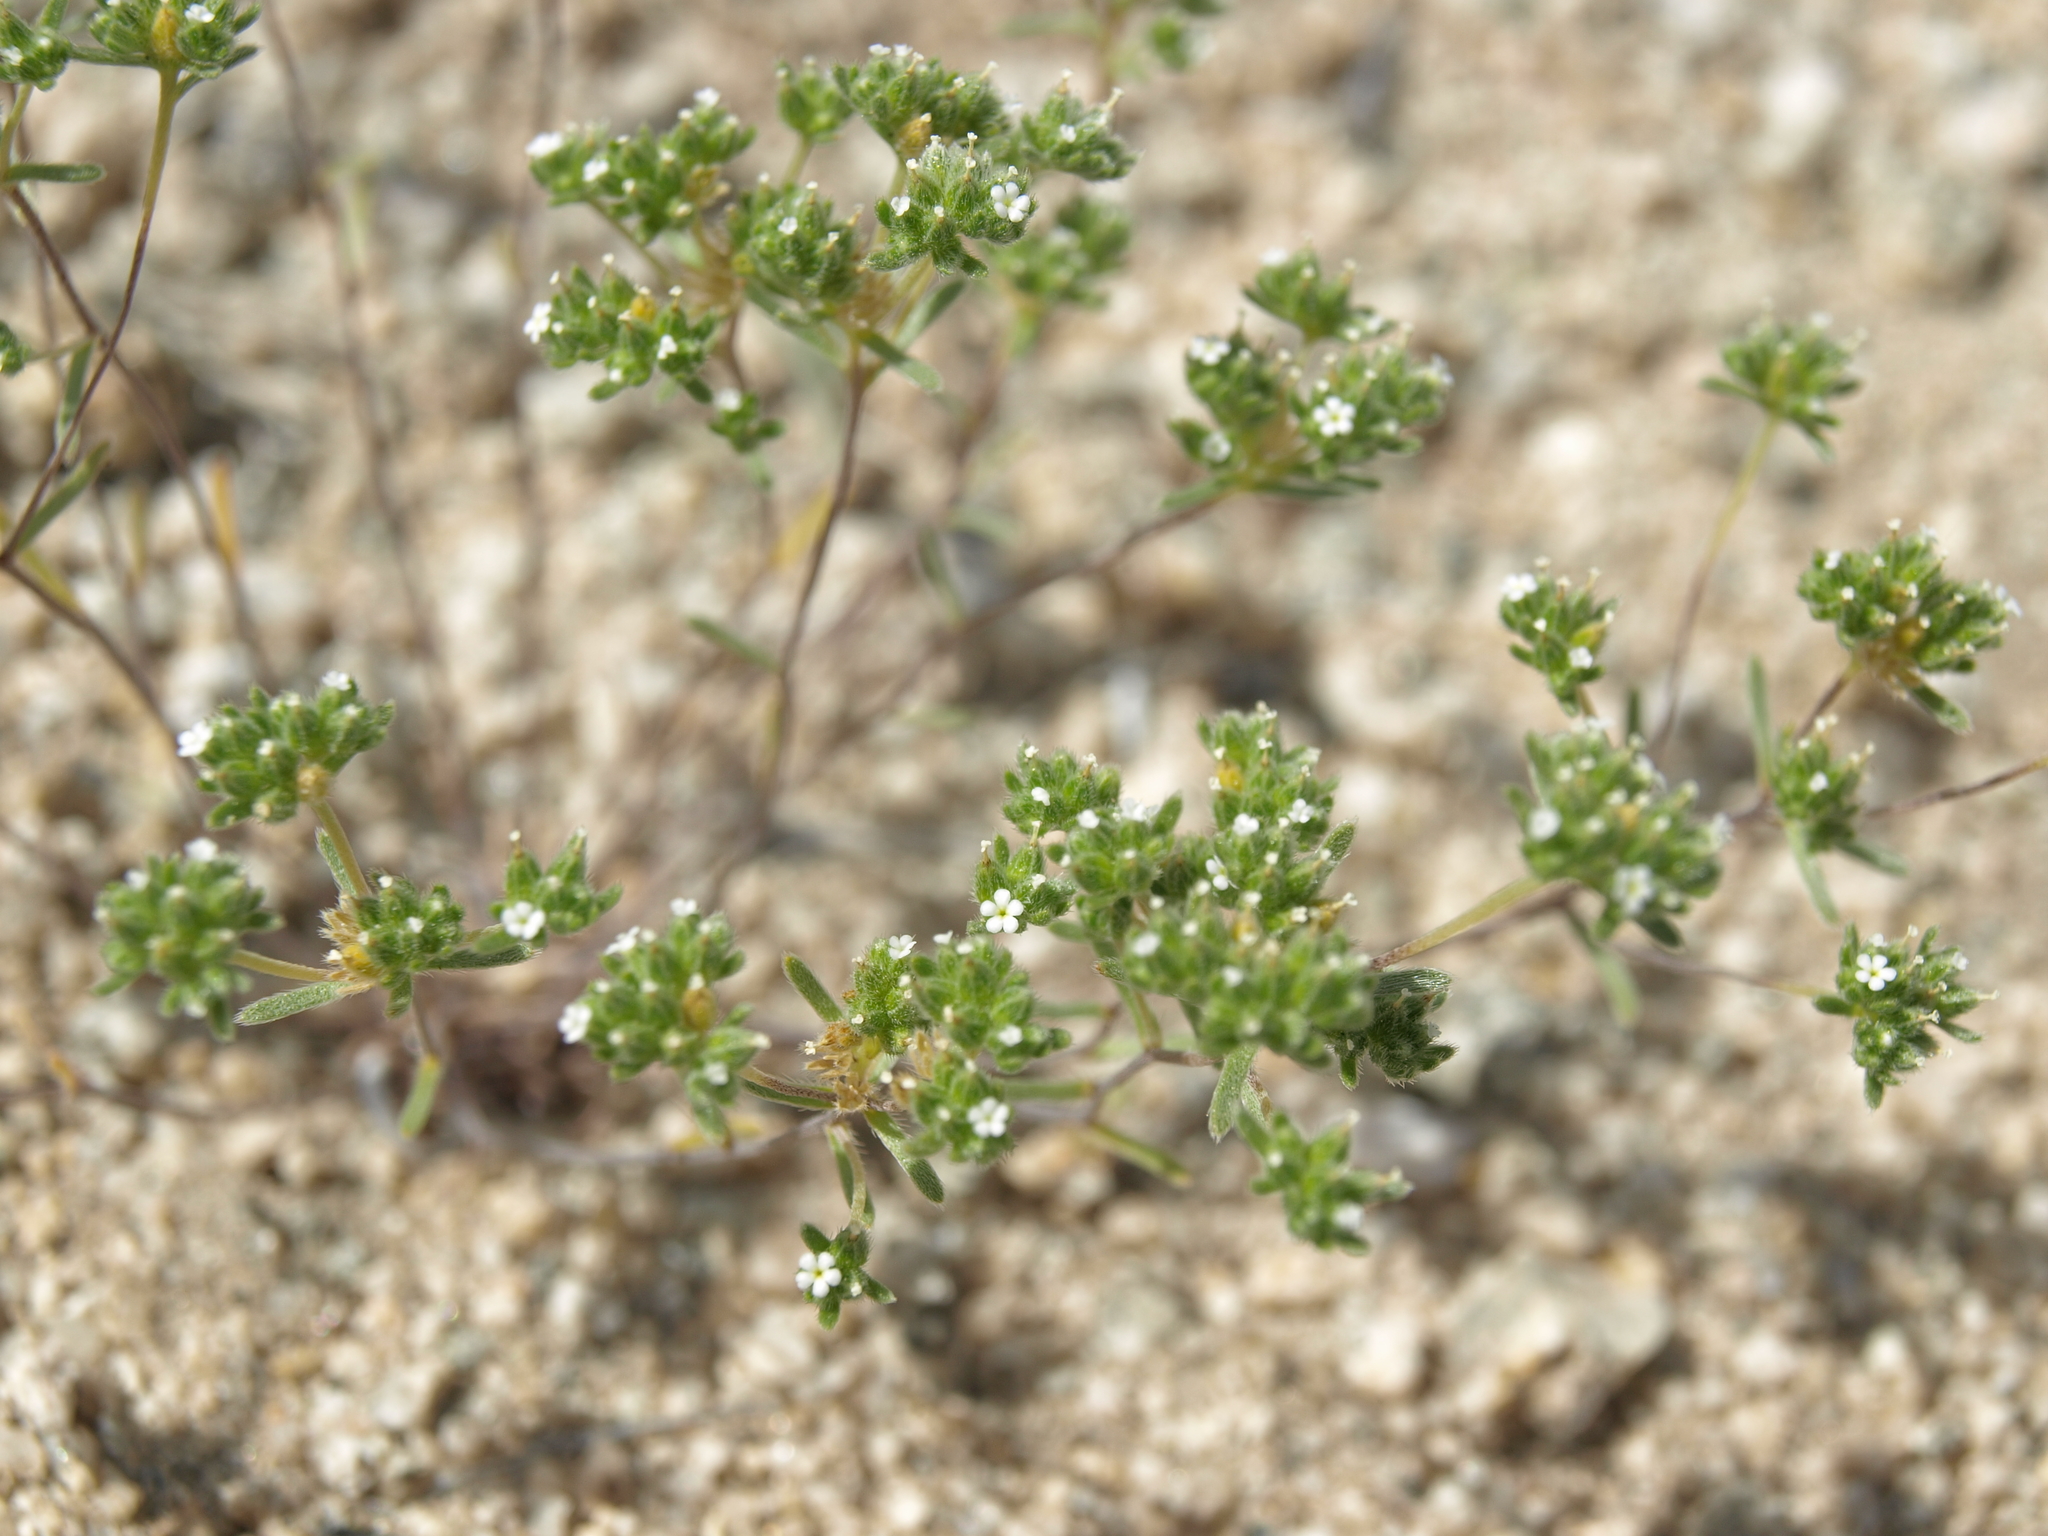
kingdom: Plantae
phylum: Tracheophyta
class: Magnoliopsida
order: Boraginales
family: Boraginaceae
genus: Eremocarya
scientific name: Eremocarya micrantha
